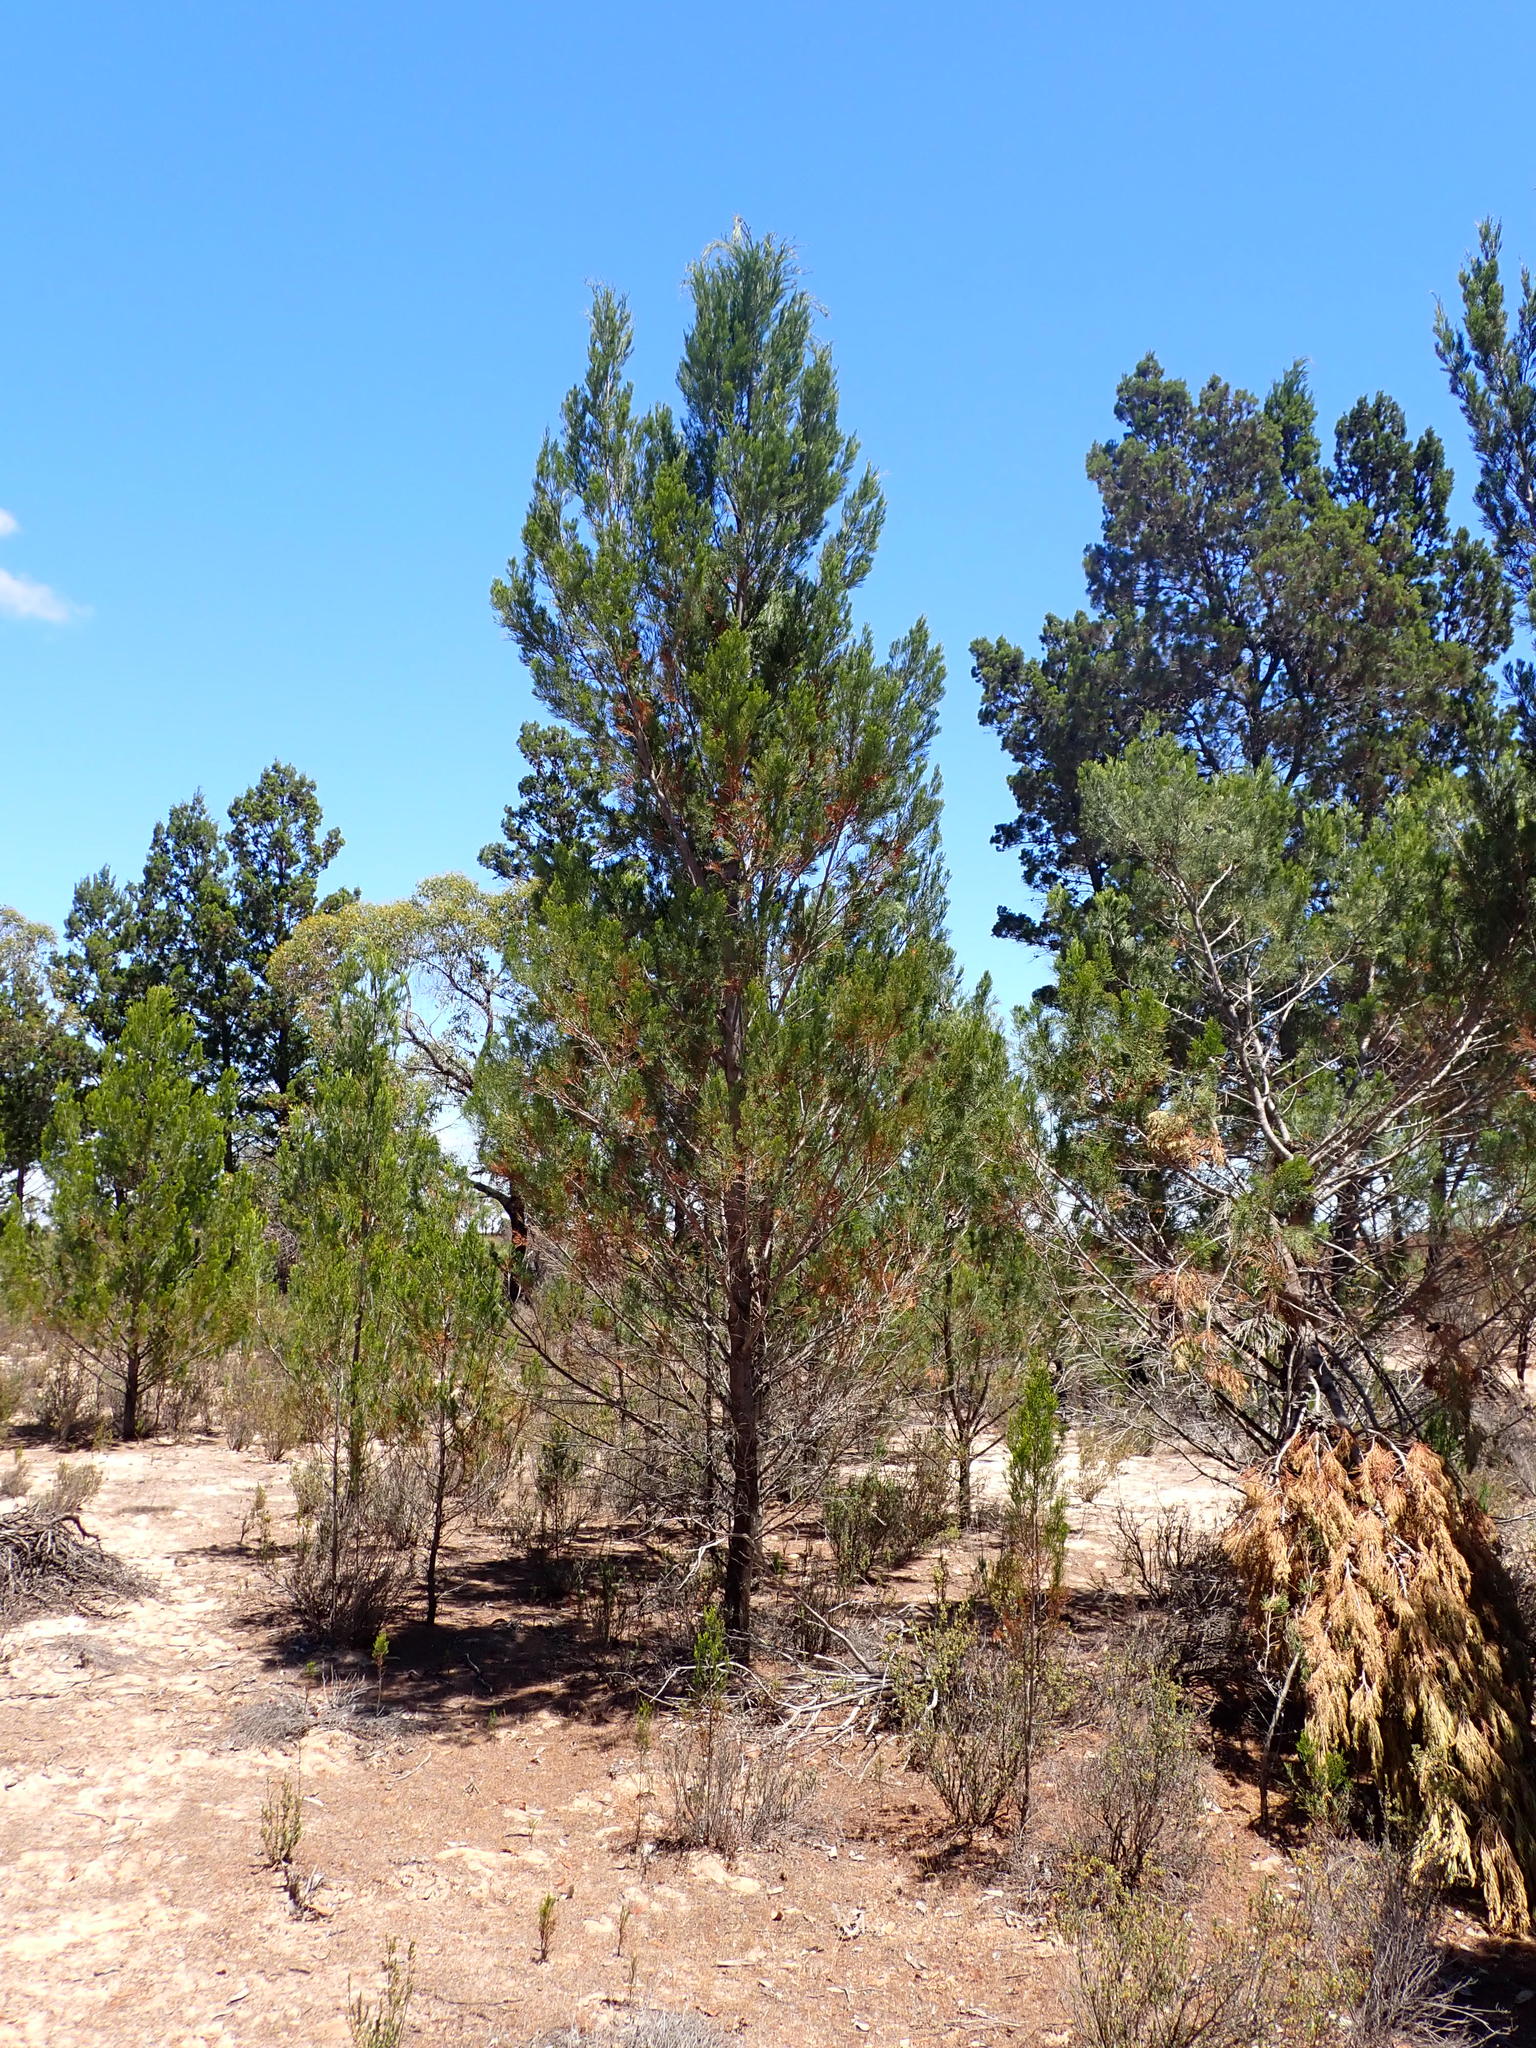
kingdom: Plantae
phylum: Tracheophyta
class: Pinopsida
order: Pinales
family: Cupressaceae
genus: Callitris
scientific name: Callitris preissii
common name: Mallee pine
